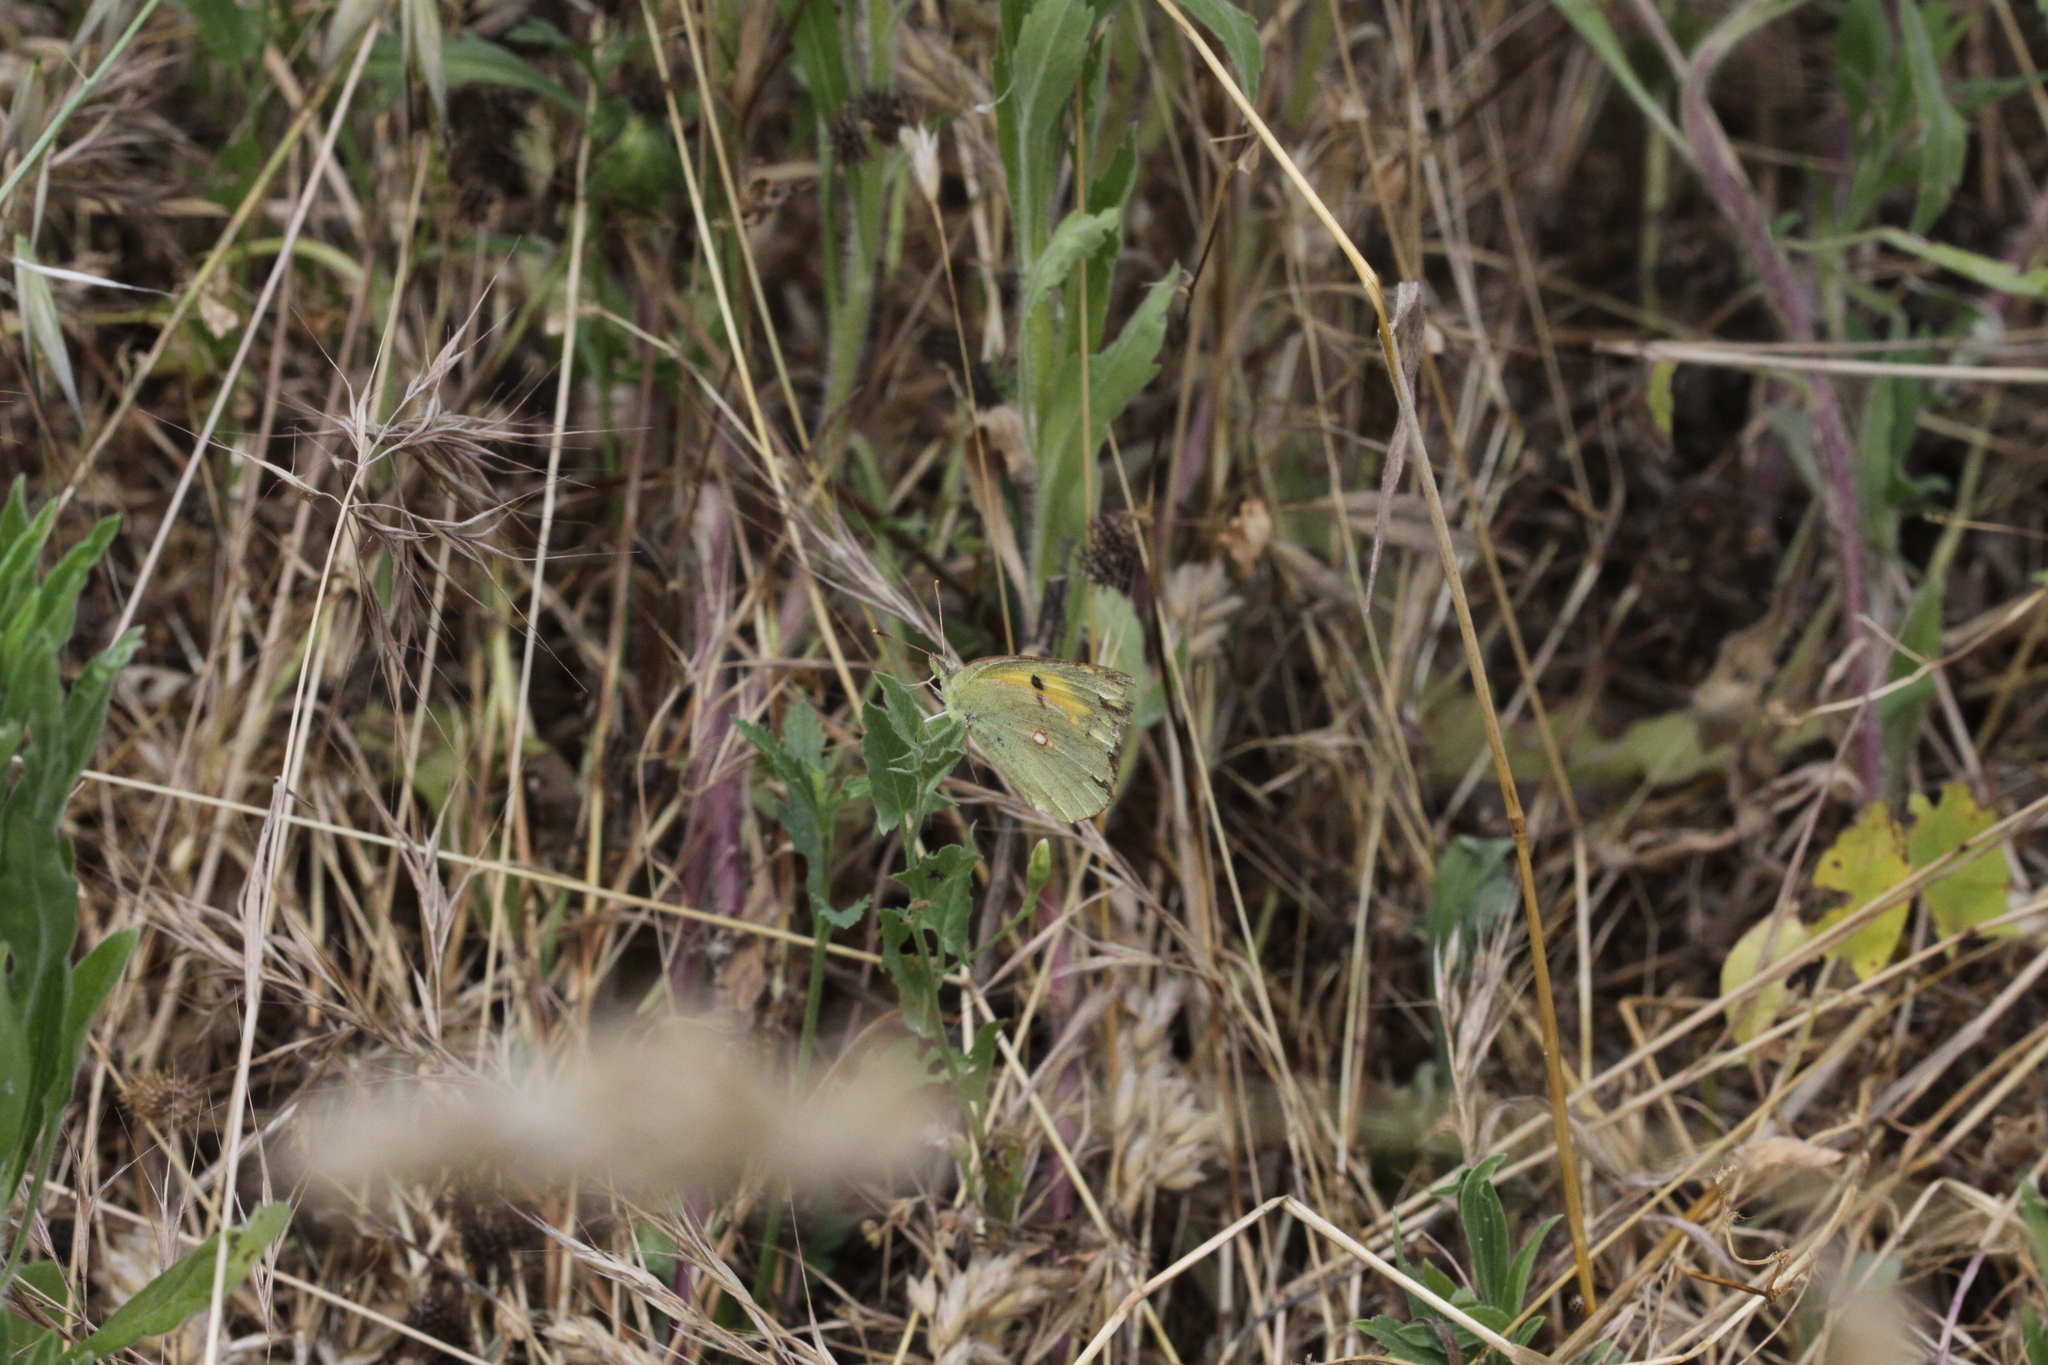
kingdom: Animalia
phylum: Arthropoda
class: Insecta
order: Lepidoptera
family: Pieridae
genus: Colias
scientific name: Colias croceus
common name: Clouded yellow
